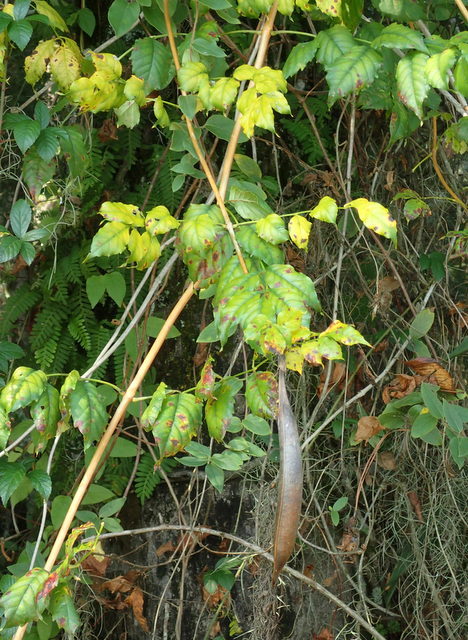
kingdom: Plantae
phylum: Tracheophyta
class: Magnoliopsida
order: Lamiales
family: Bignoniaceae
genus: Campsis
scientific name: Campsis radicans
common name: Trumpet-creeper
